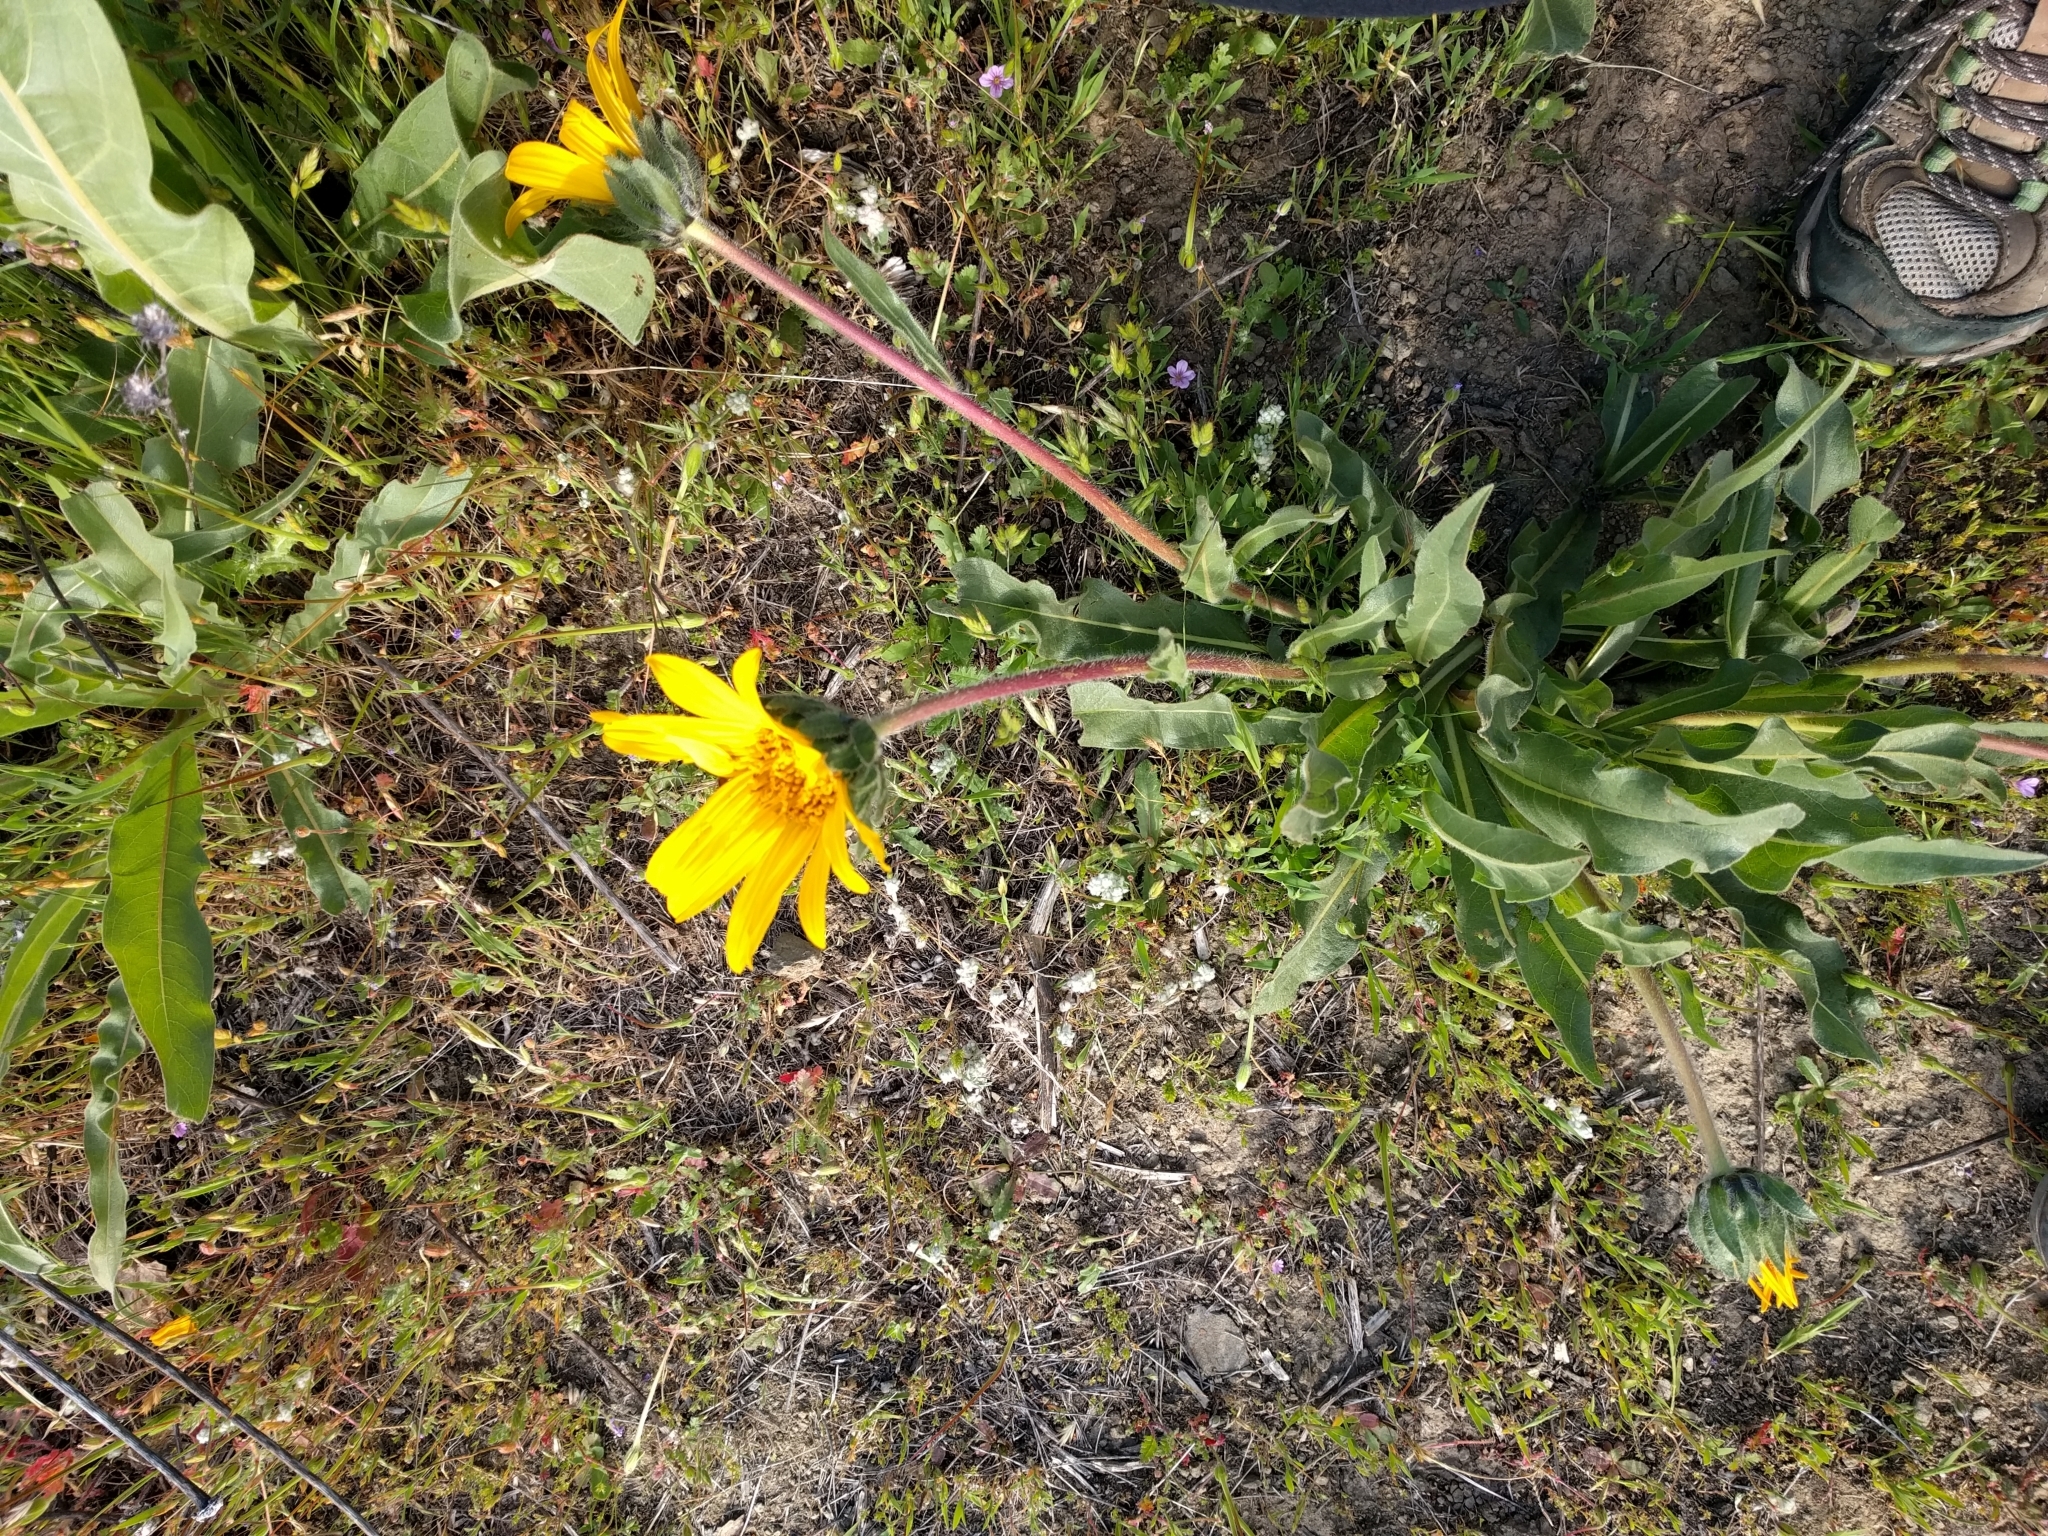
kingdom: Plantae
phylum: Tracheophyta
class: Magnoliopsida
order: Asterales
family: Asteraceae
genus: Wyethia
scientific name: Wyethia angustifolia
